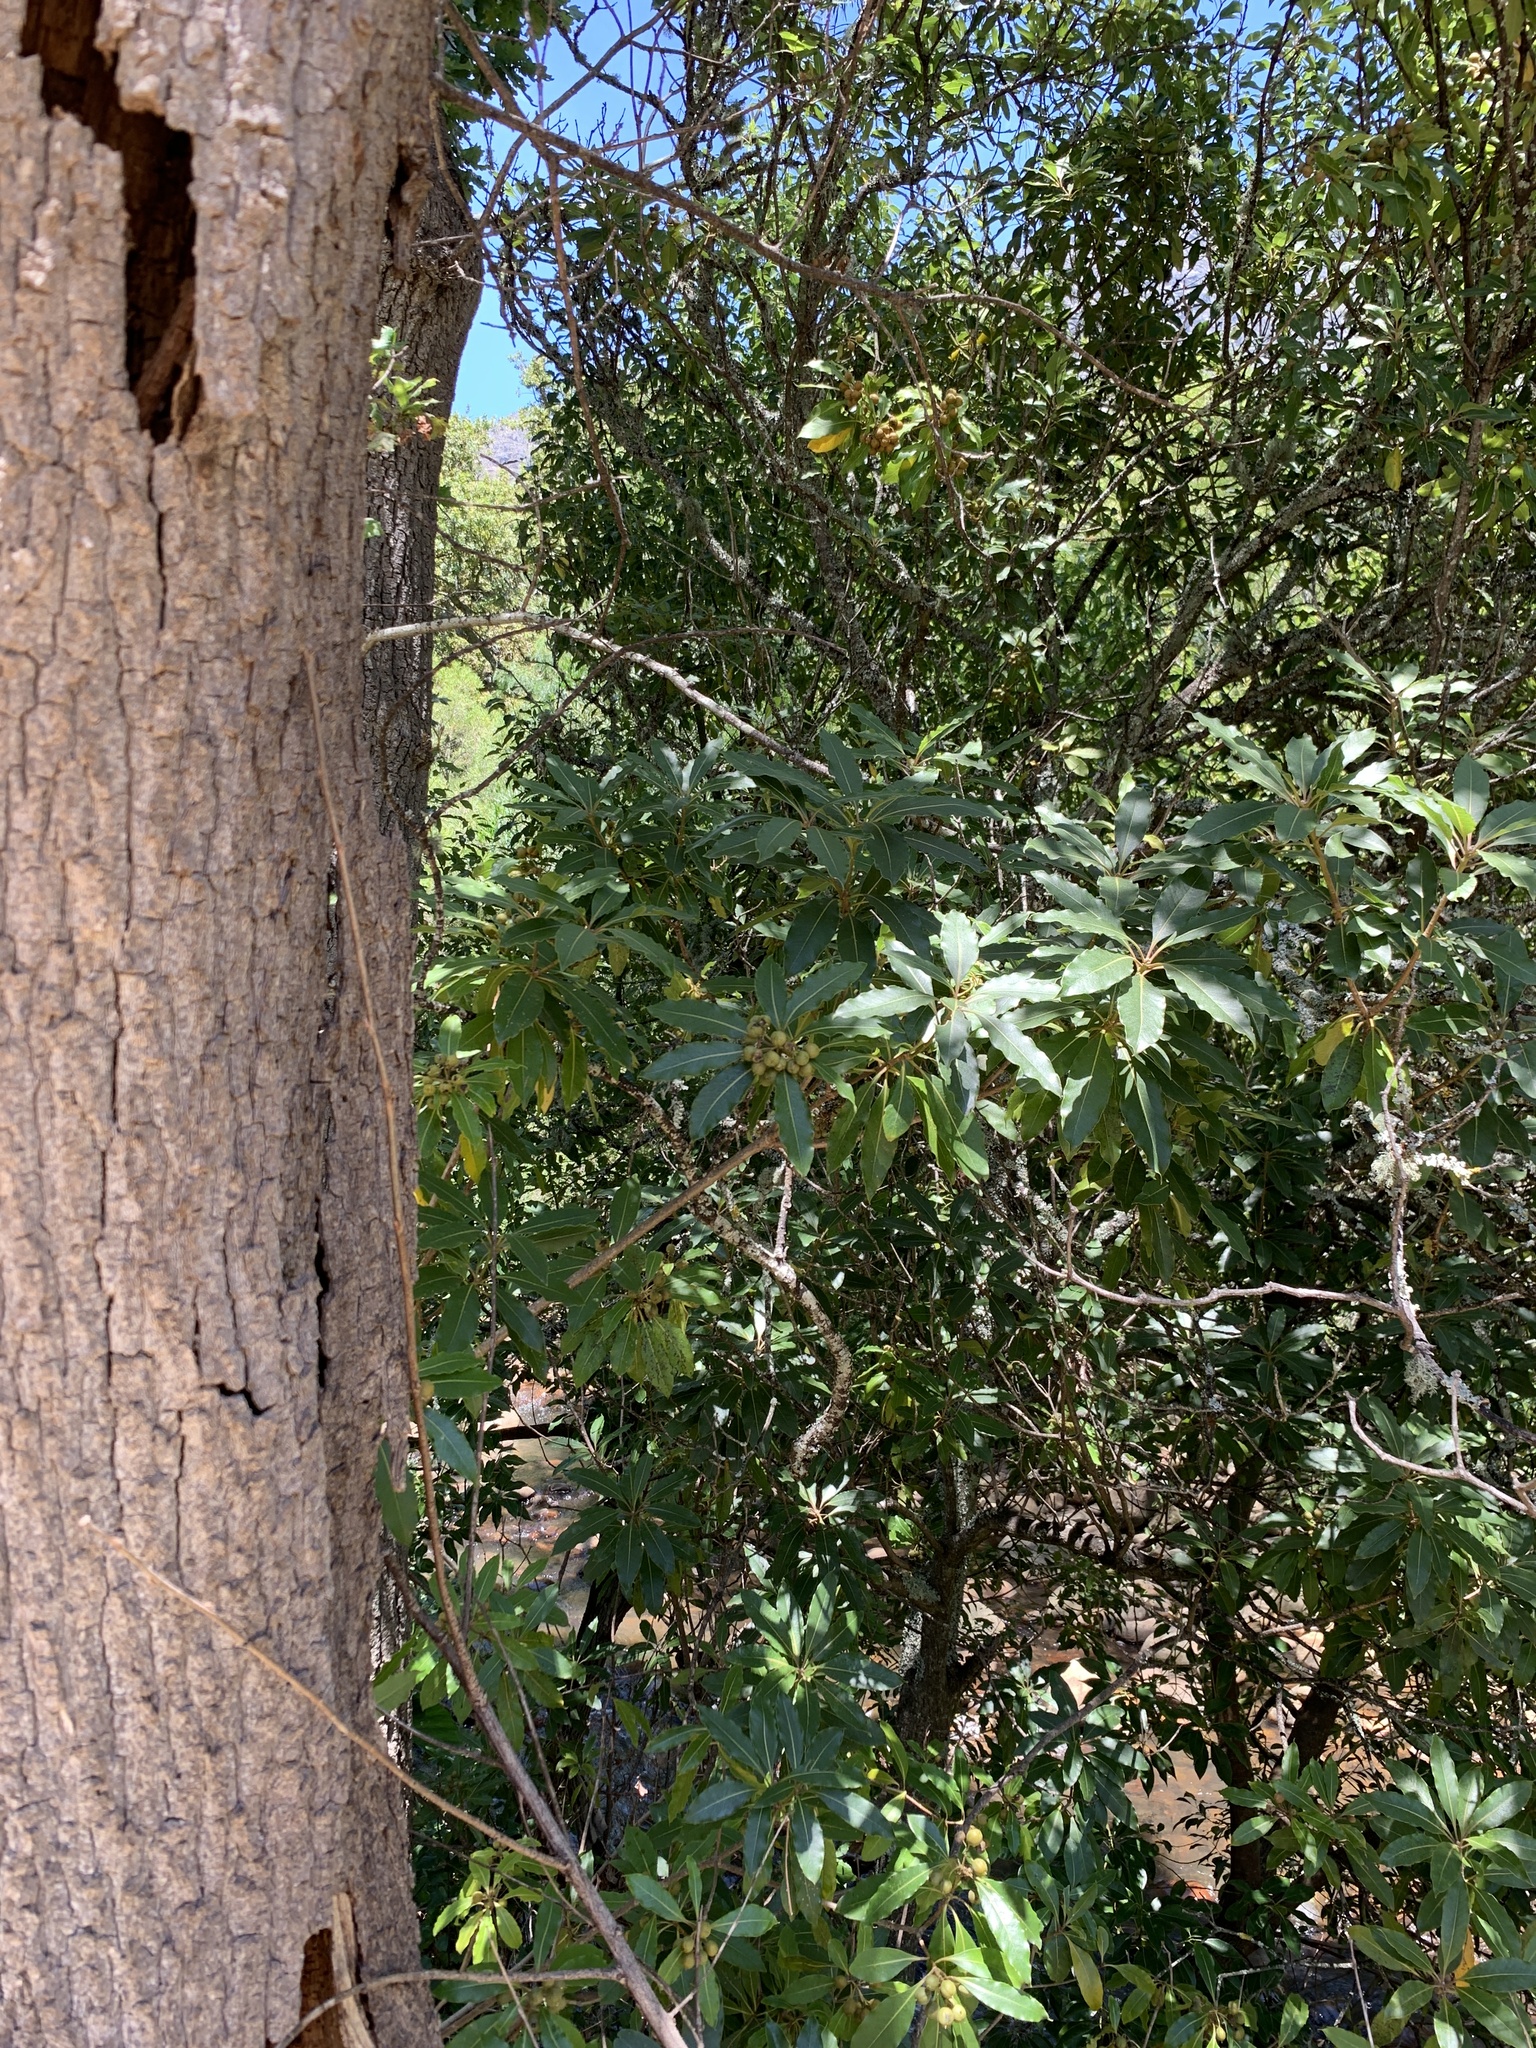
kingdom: Plantae
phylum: Tracheophyta
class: Magnoliopsida
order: Apiales
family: Pittosporaceae
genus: Pittosporum
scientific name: Pittosporum undulatum
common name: Australian cheesewood
